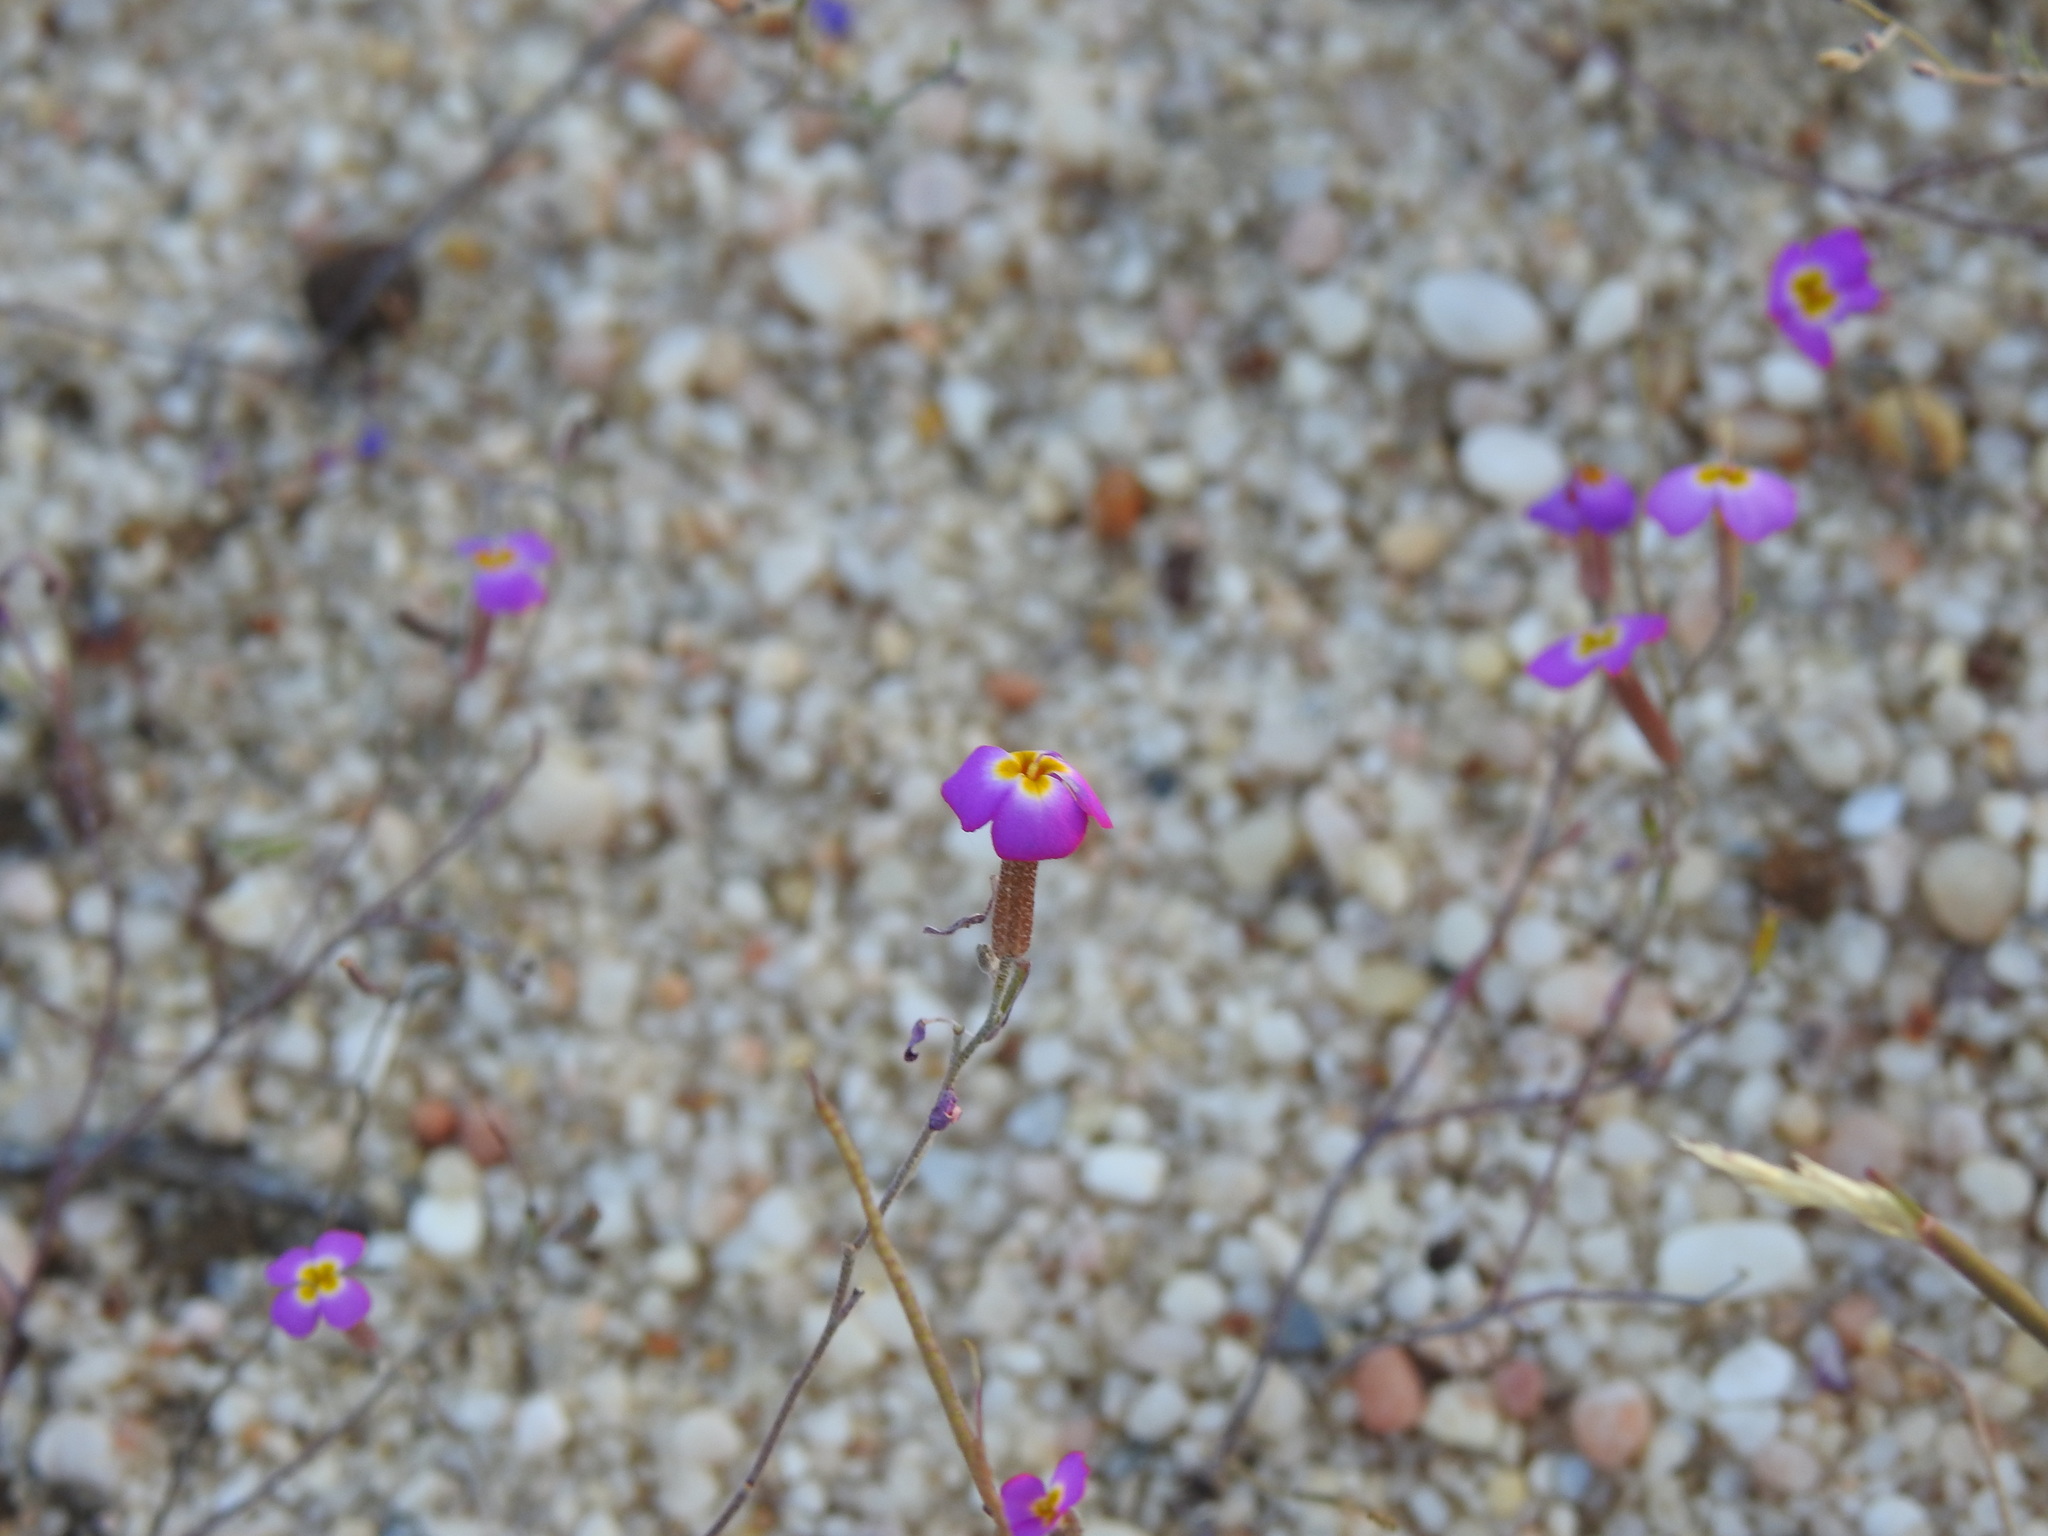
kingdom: Plantae
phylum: Tracheophyta
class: Magnoliopsida
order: Brassicales
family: Brassicaceae
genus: Marcuskochia
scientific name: Marcuskochia triloba
